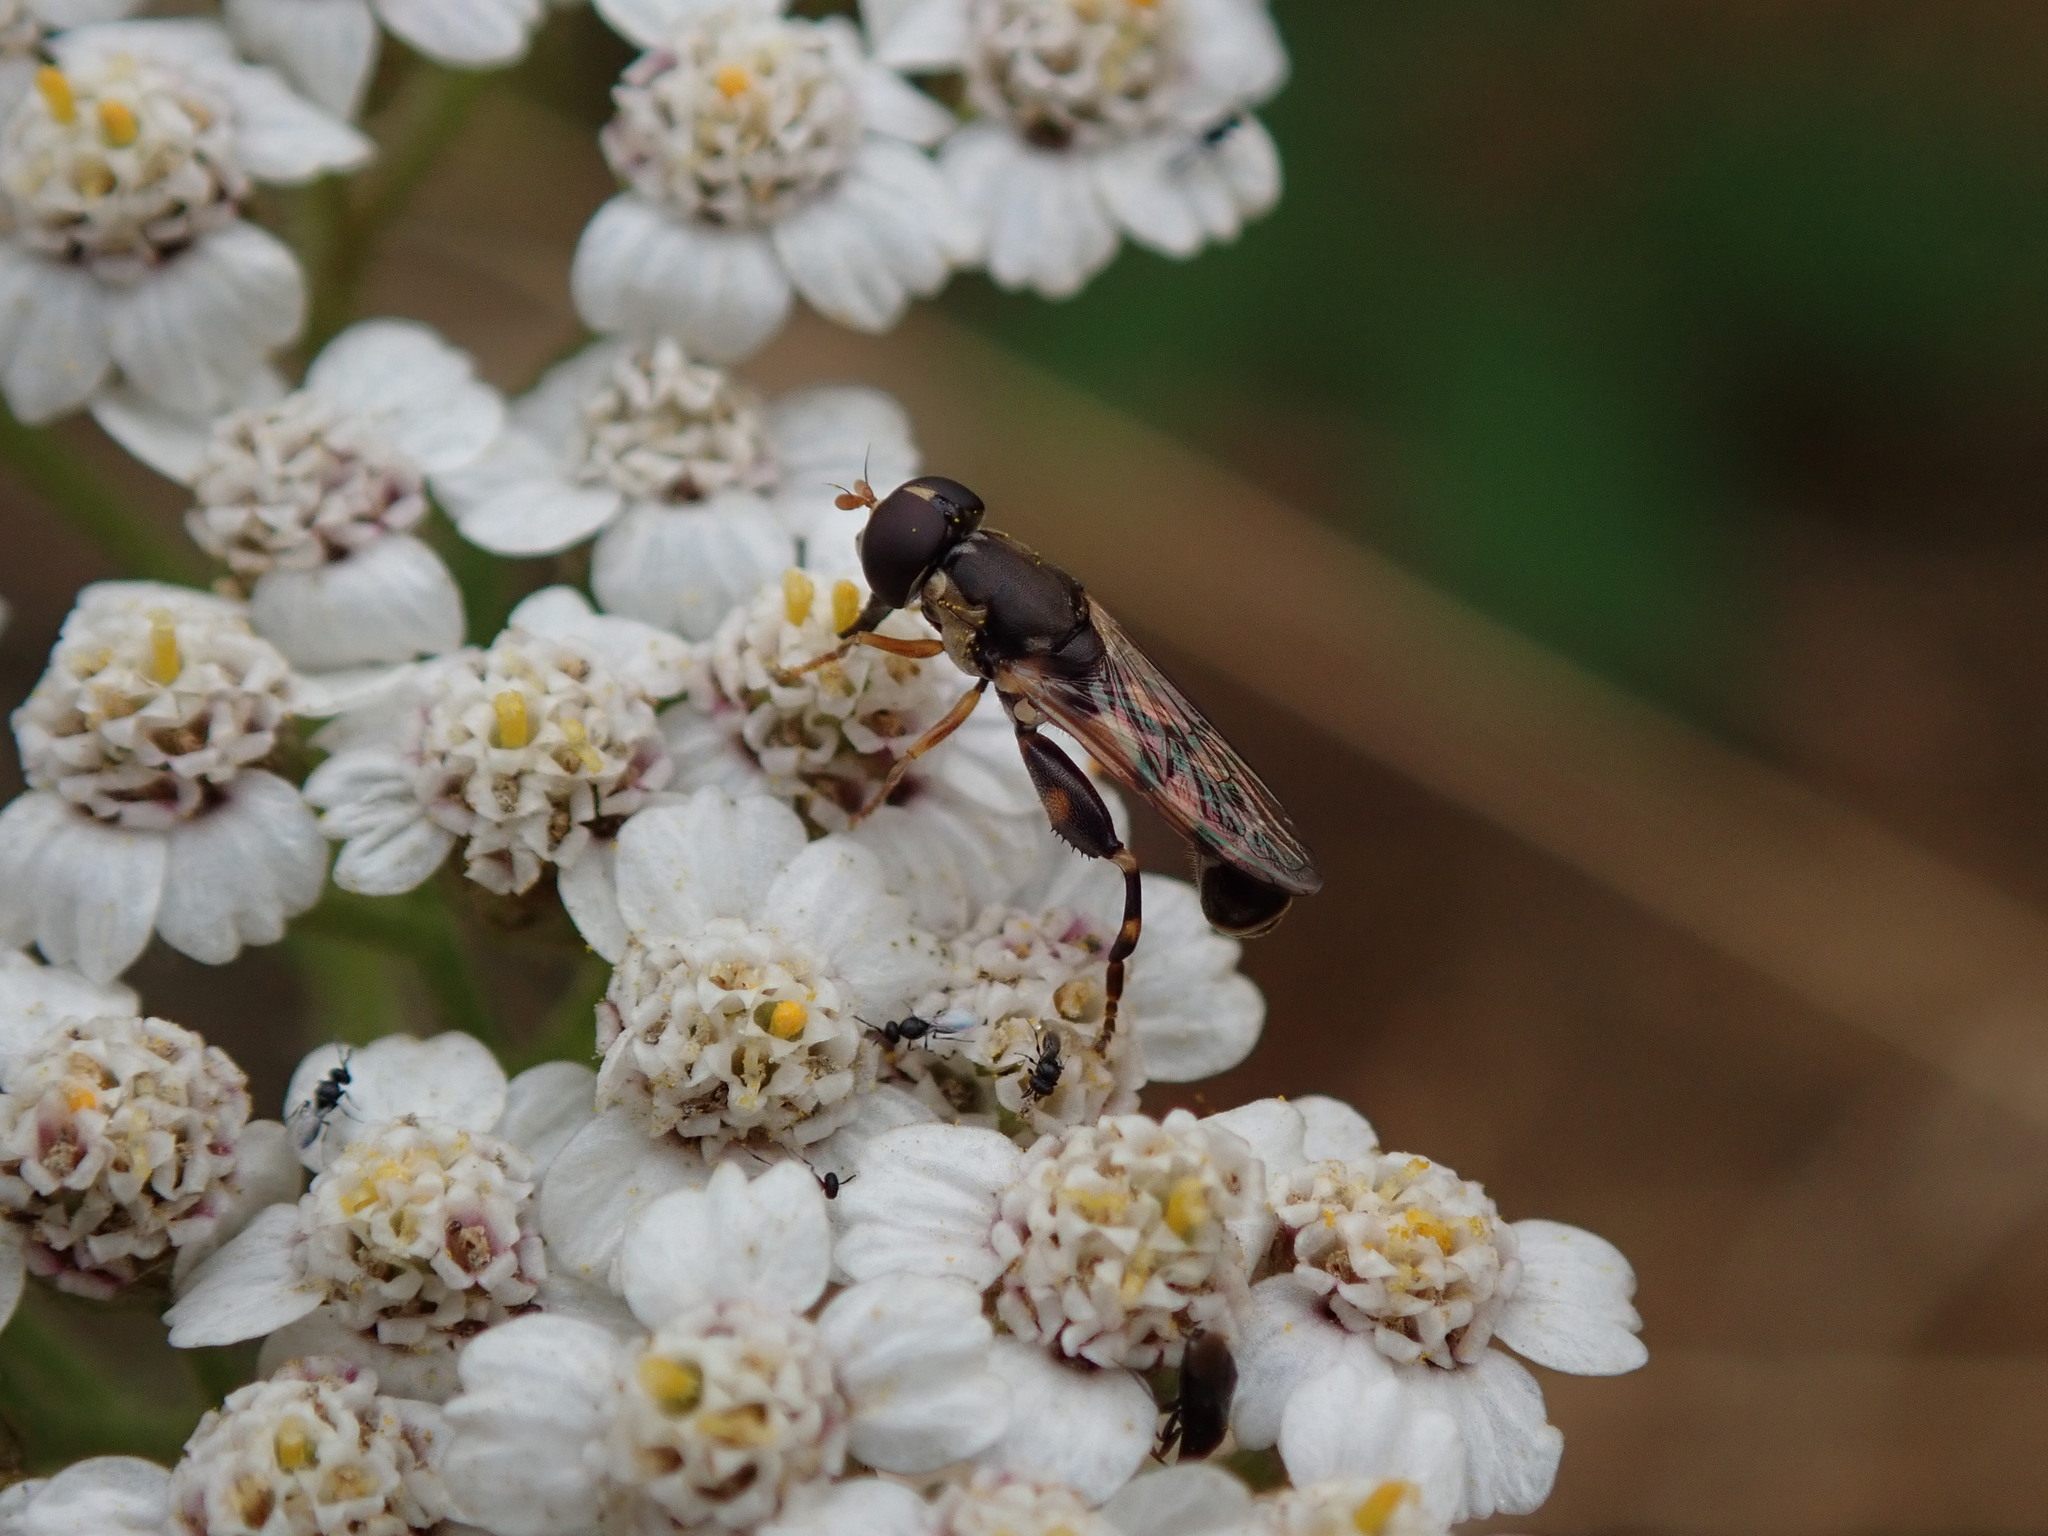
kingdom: Animalia
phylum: Arthropoda
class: Insecta
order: Diptera
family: Syrphidae
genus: Syritta
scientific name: Syritta pipiens
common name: Hover fly
